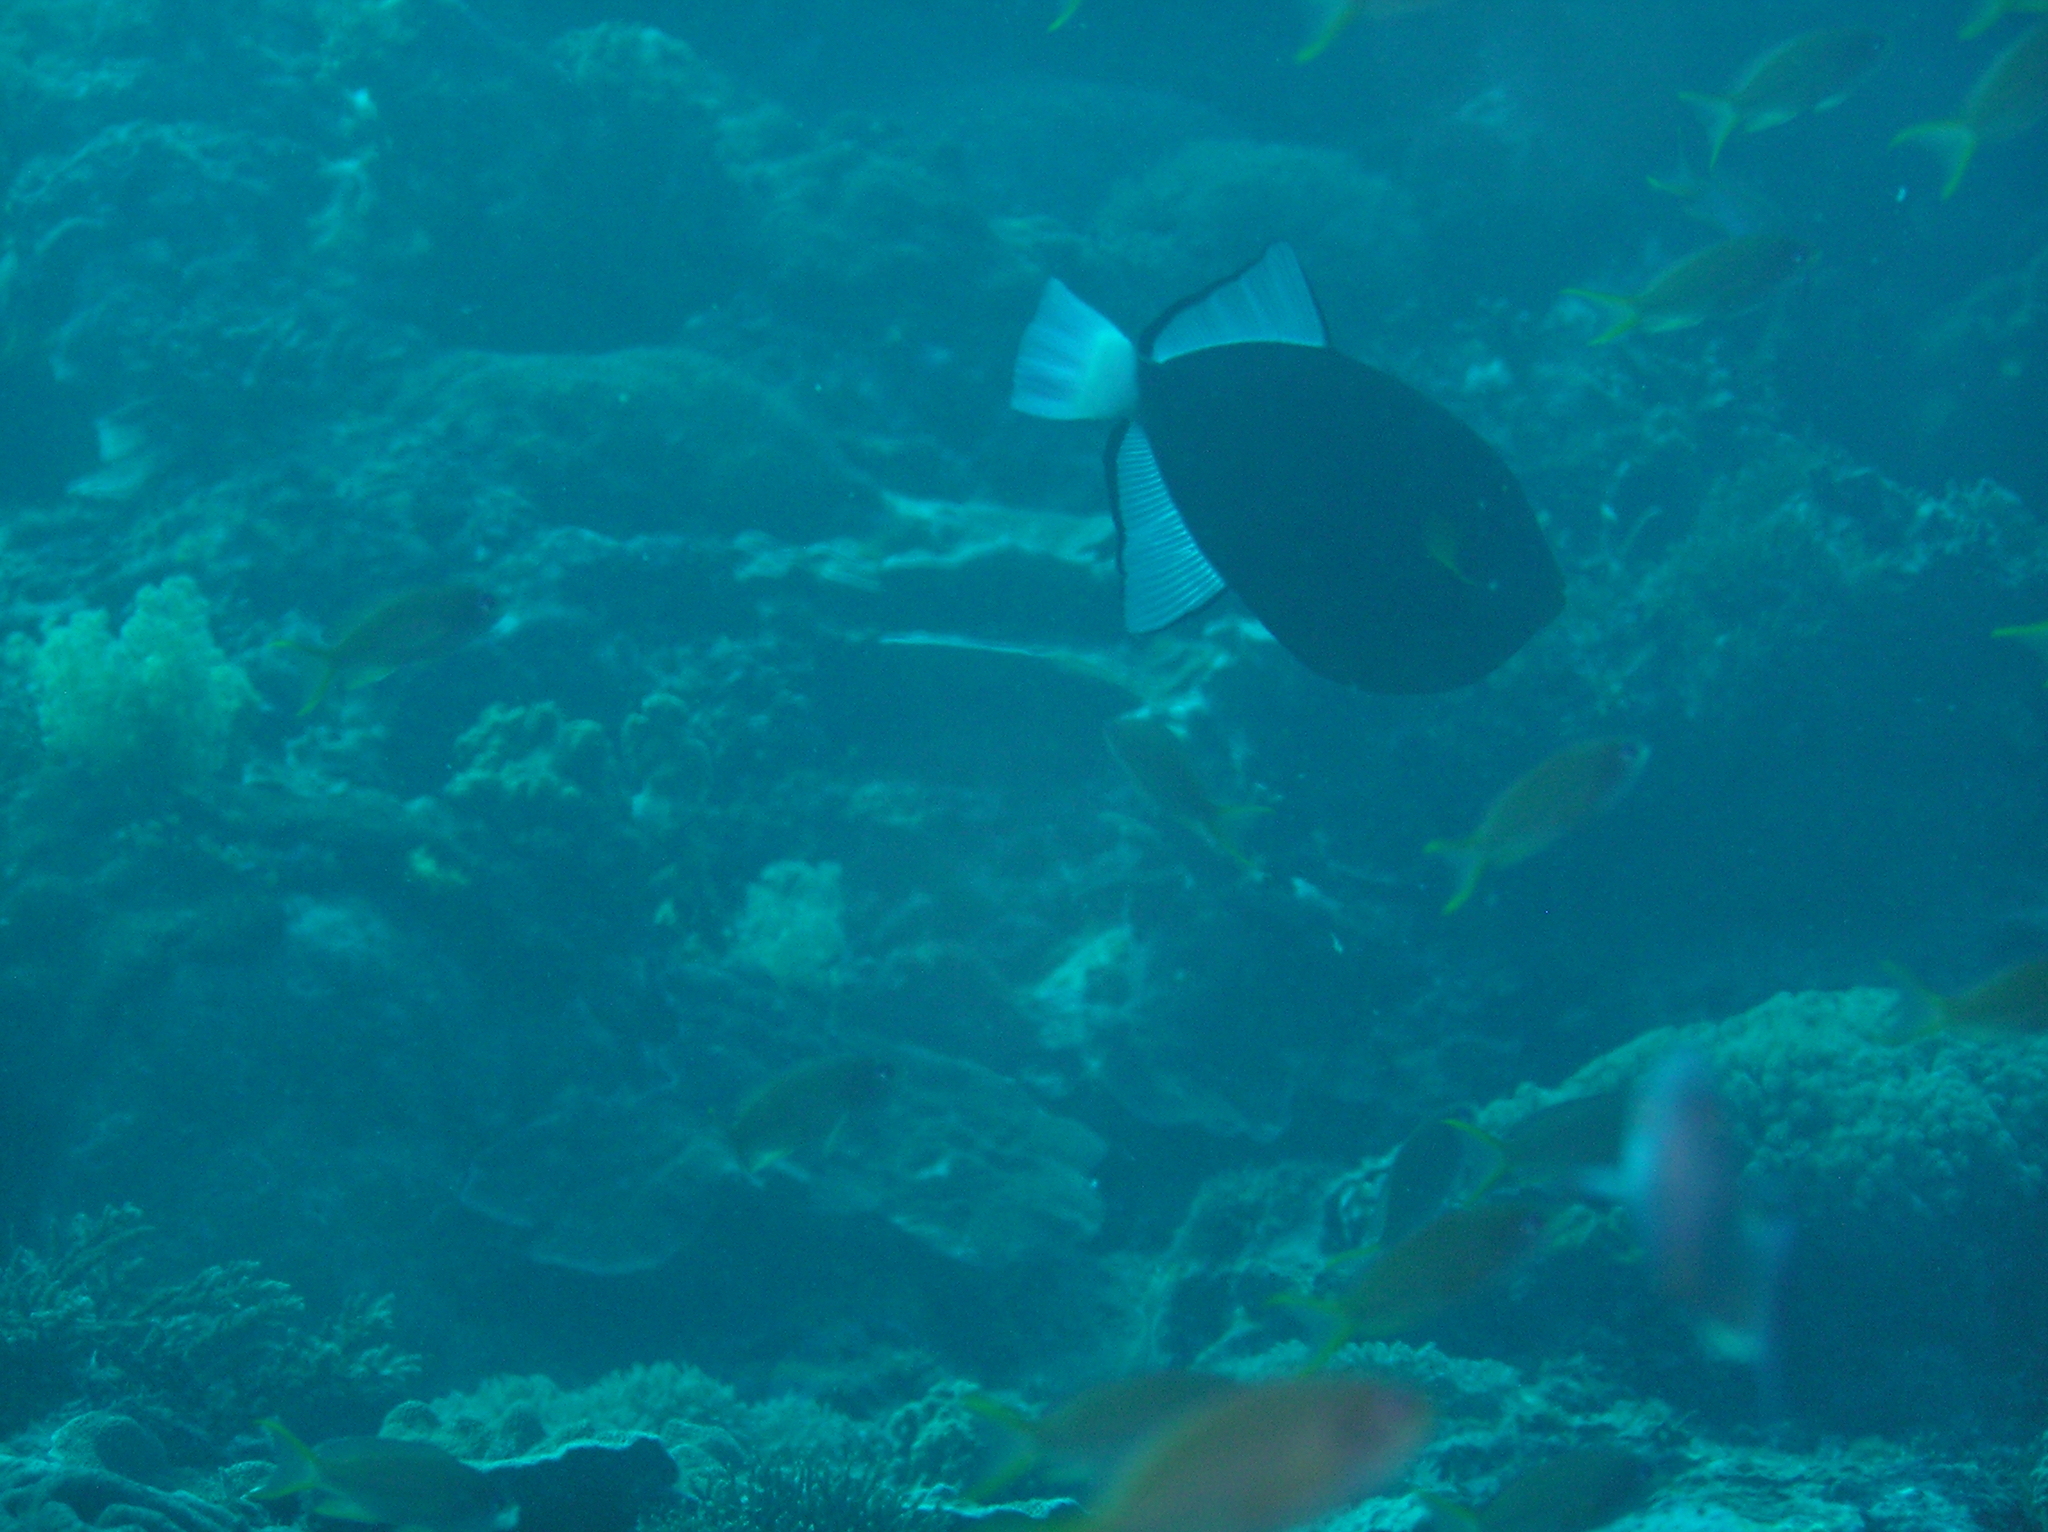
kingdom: Animalia
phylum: Chordata
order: Tetraodontiformes
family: Balistidae
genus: Melichthys
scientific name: Melichthys vidua
